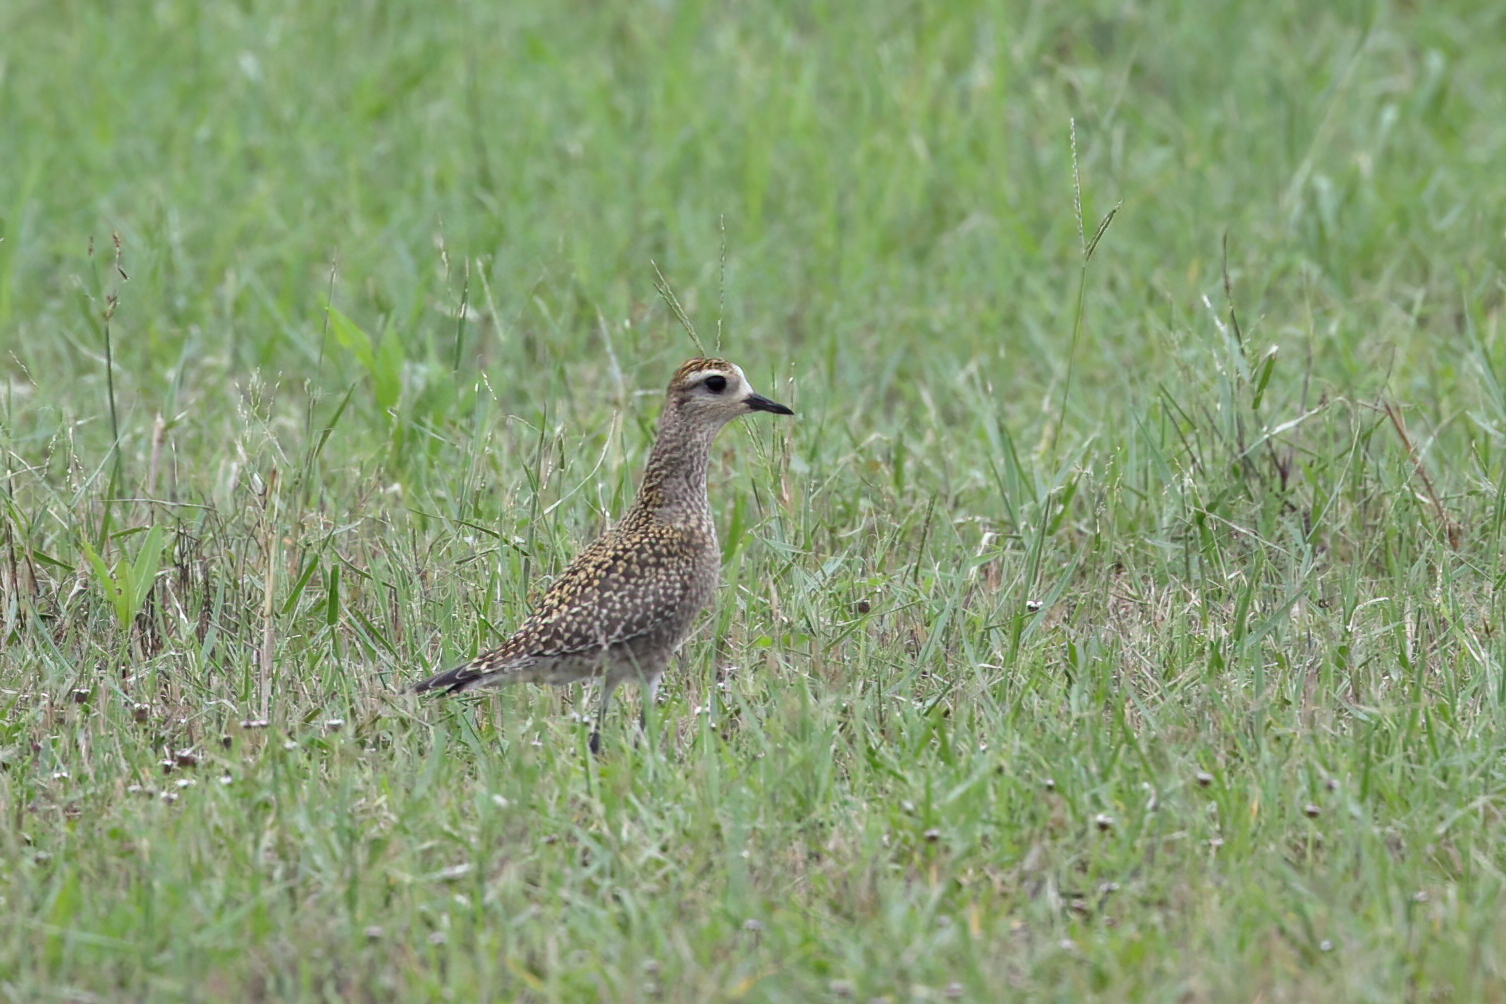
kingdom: Animalia
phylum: Chordata
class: Aves
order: Charadriiformes
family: Charadriidae
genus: Pluvialis
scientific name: Pluvialis dominica
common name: American golden plover
